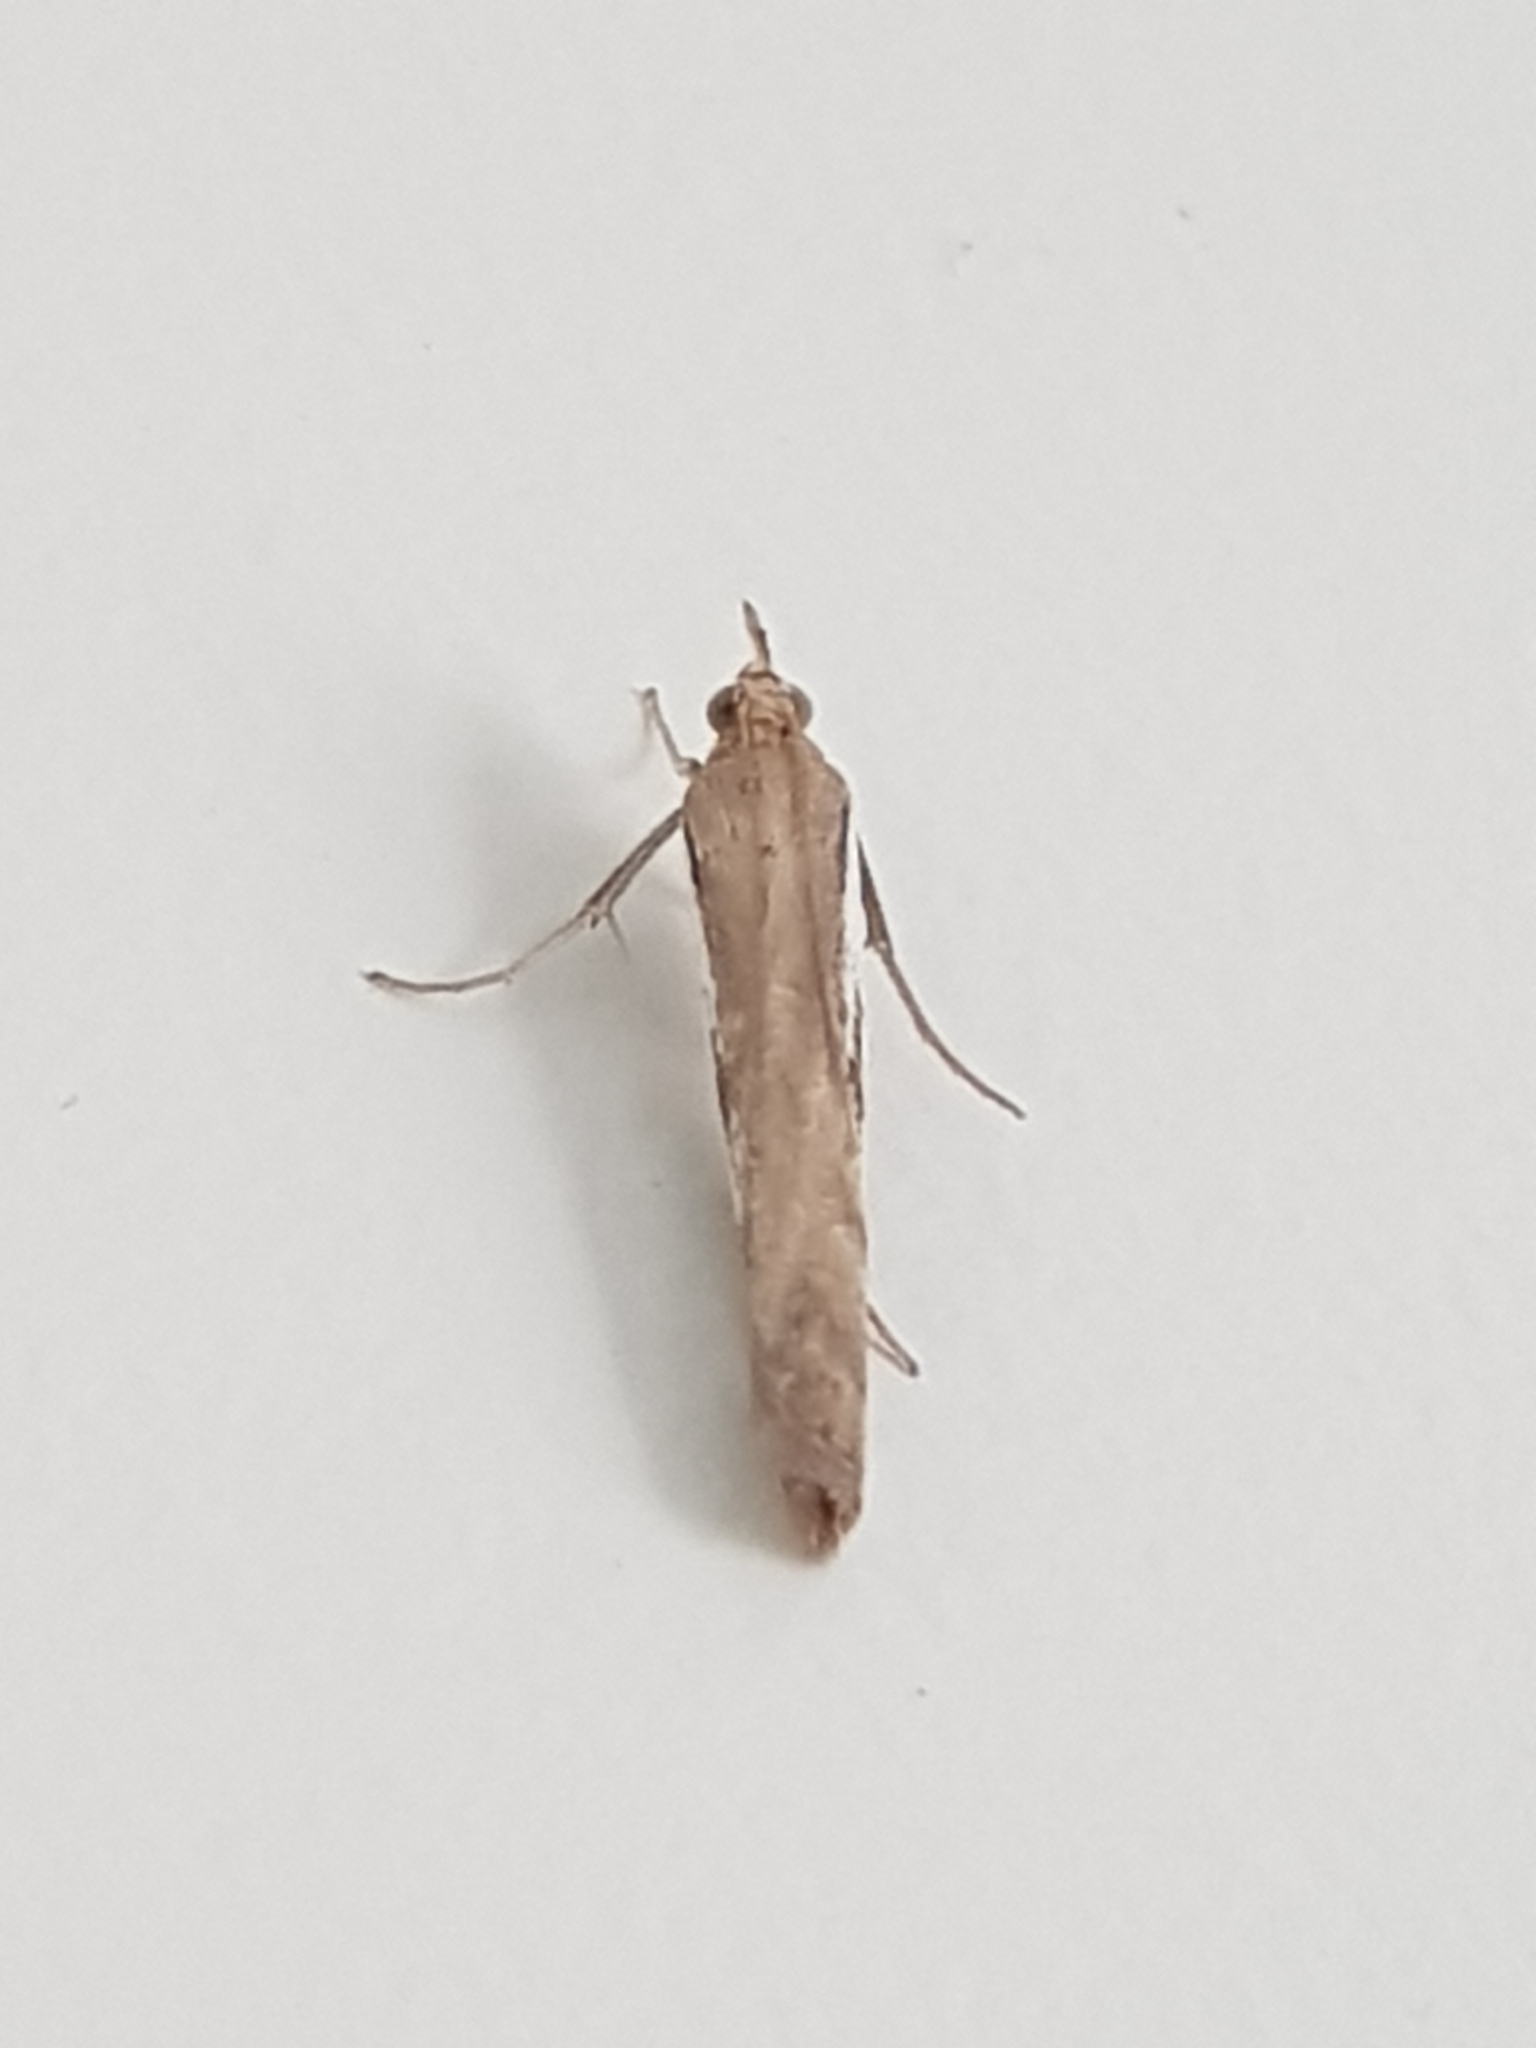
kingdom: Animalia
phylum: Arthropoda
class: Insecta
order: Lepidoptera
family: Crambidae
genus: Orocrambus
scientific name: Orocrambus flexuosellus
